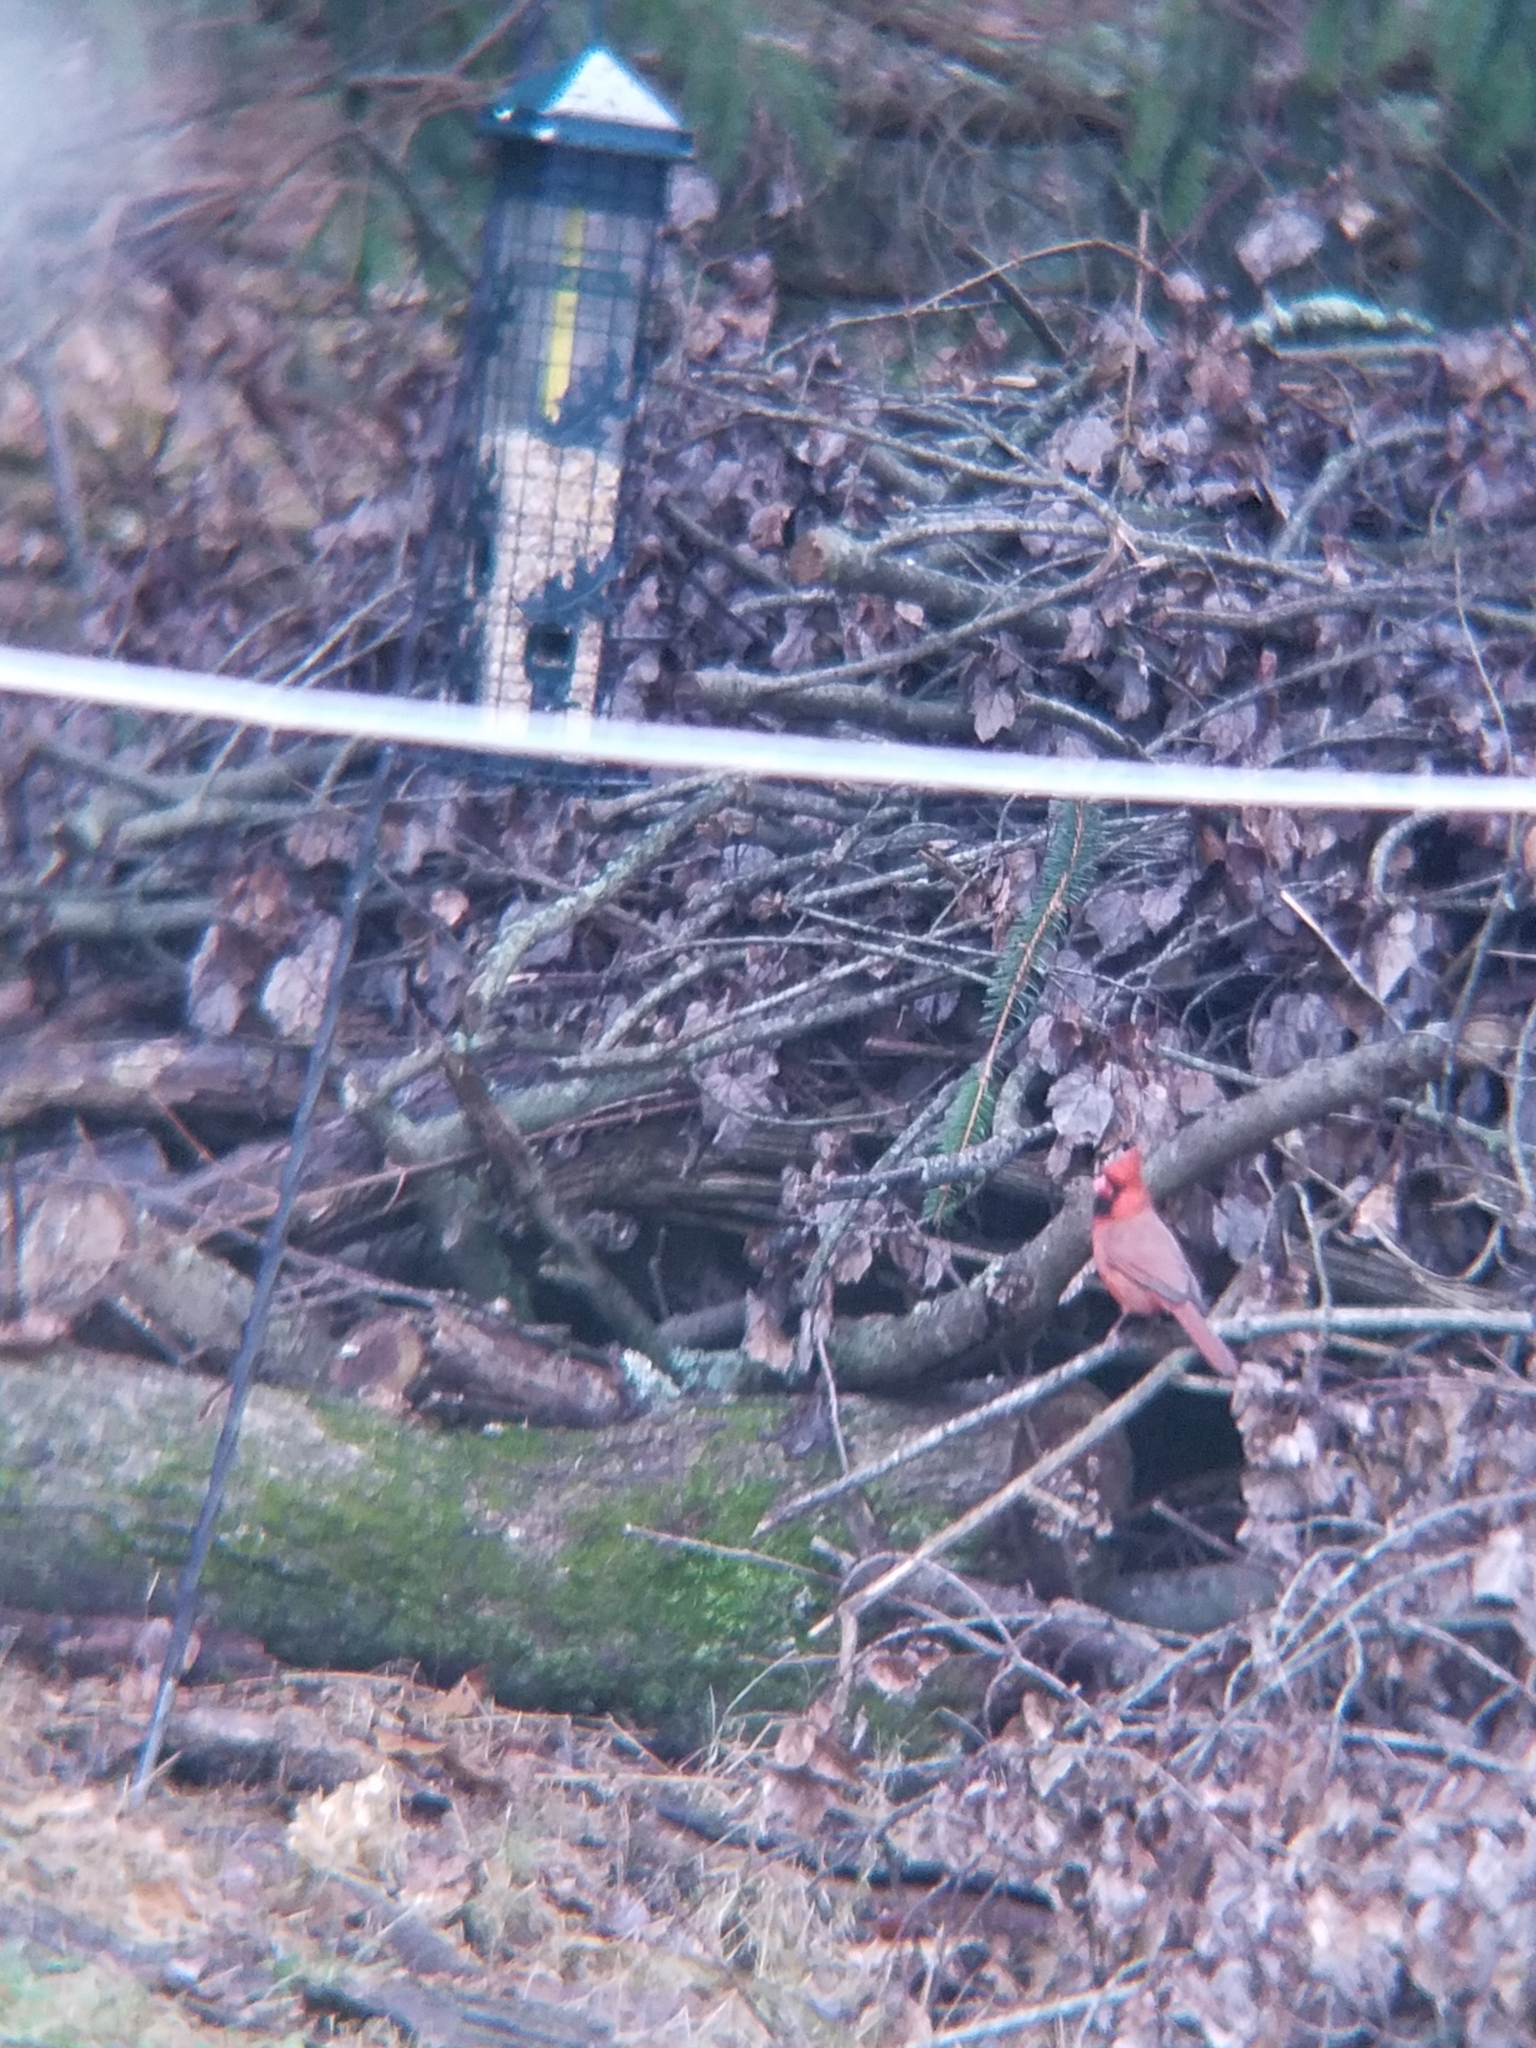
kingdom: Animalia
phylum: Chordata
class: Aves
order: Passeriformes
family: Cardinalidae
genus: Cardinalis
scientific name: Cardinalis cardinalis
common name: Northern cardinal
